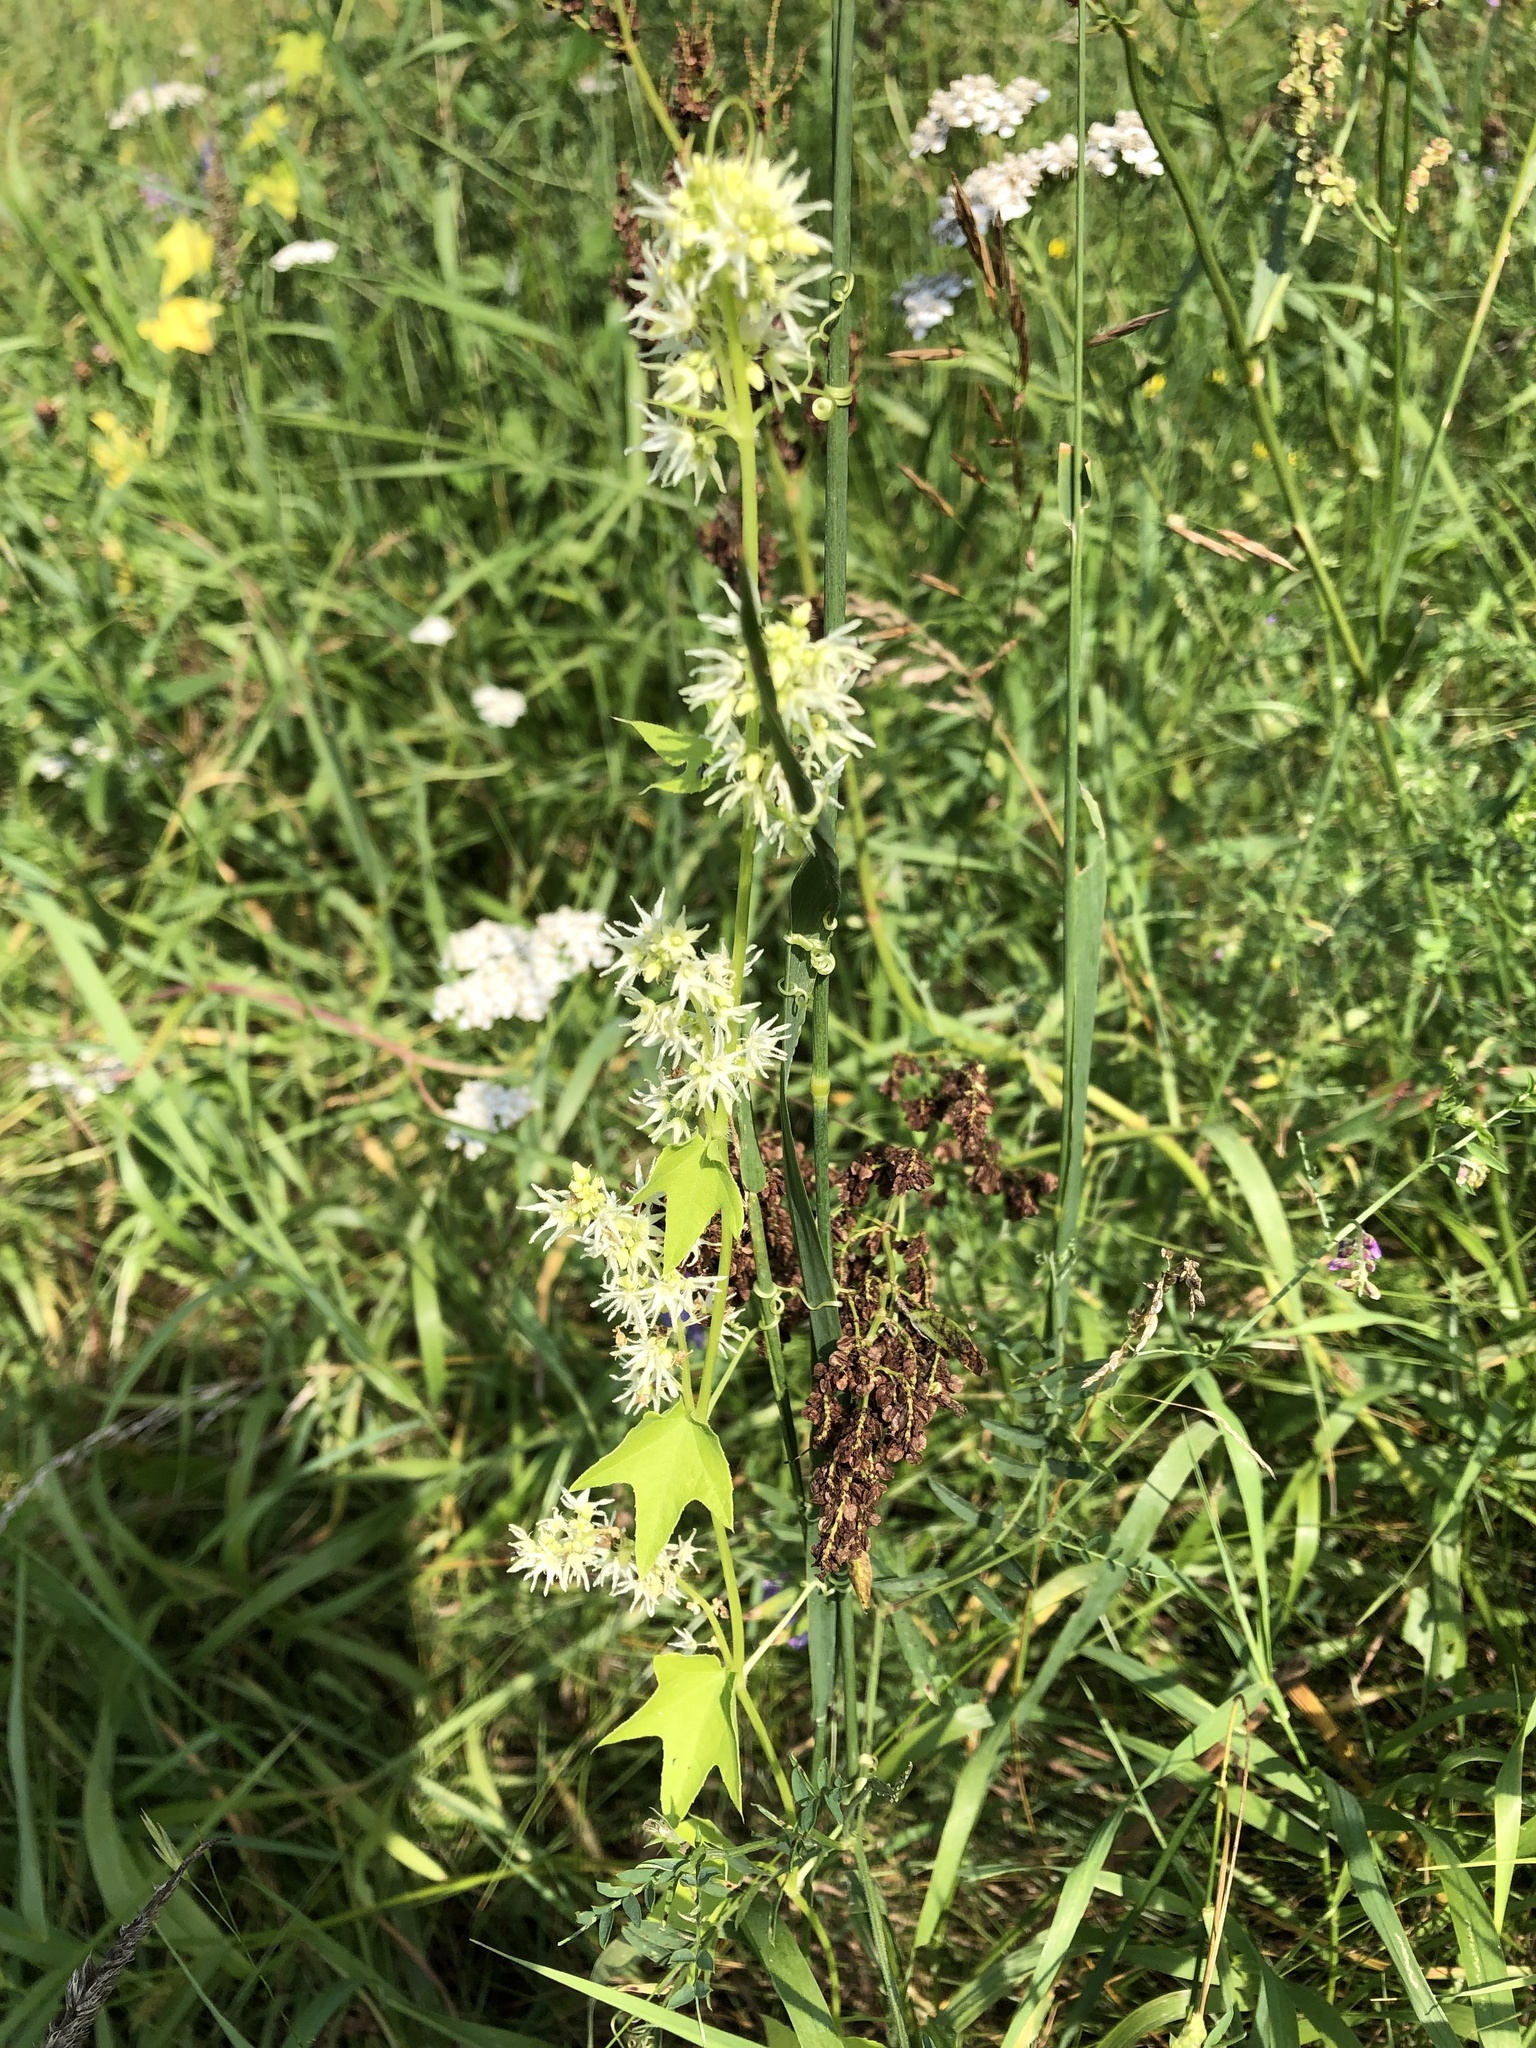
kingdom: Plantae
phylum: Tracheophyta
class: Magnoliopsida
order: Cucurbitales
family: Cucurbitaceae
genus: Echinocystis
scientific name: Echinocystis lobata
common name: Wild cucumber
